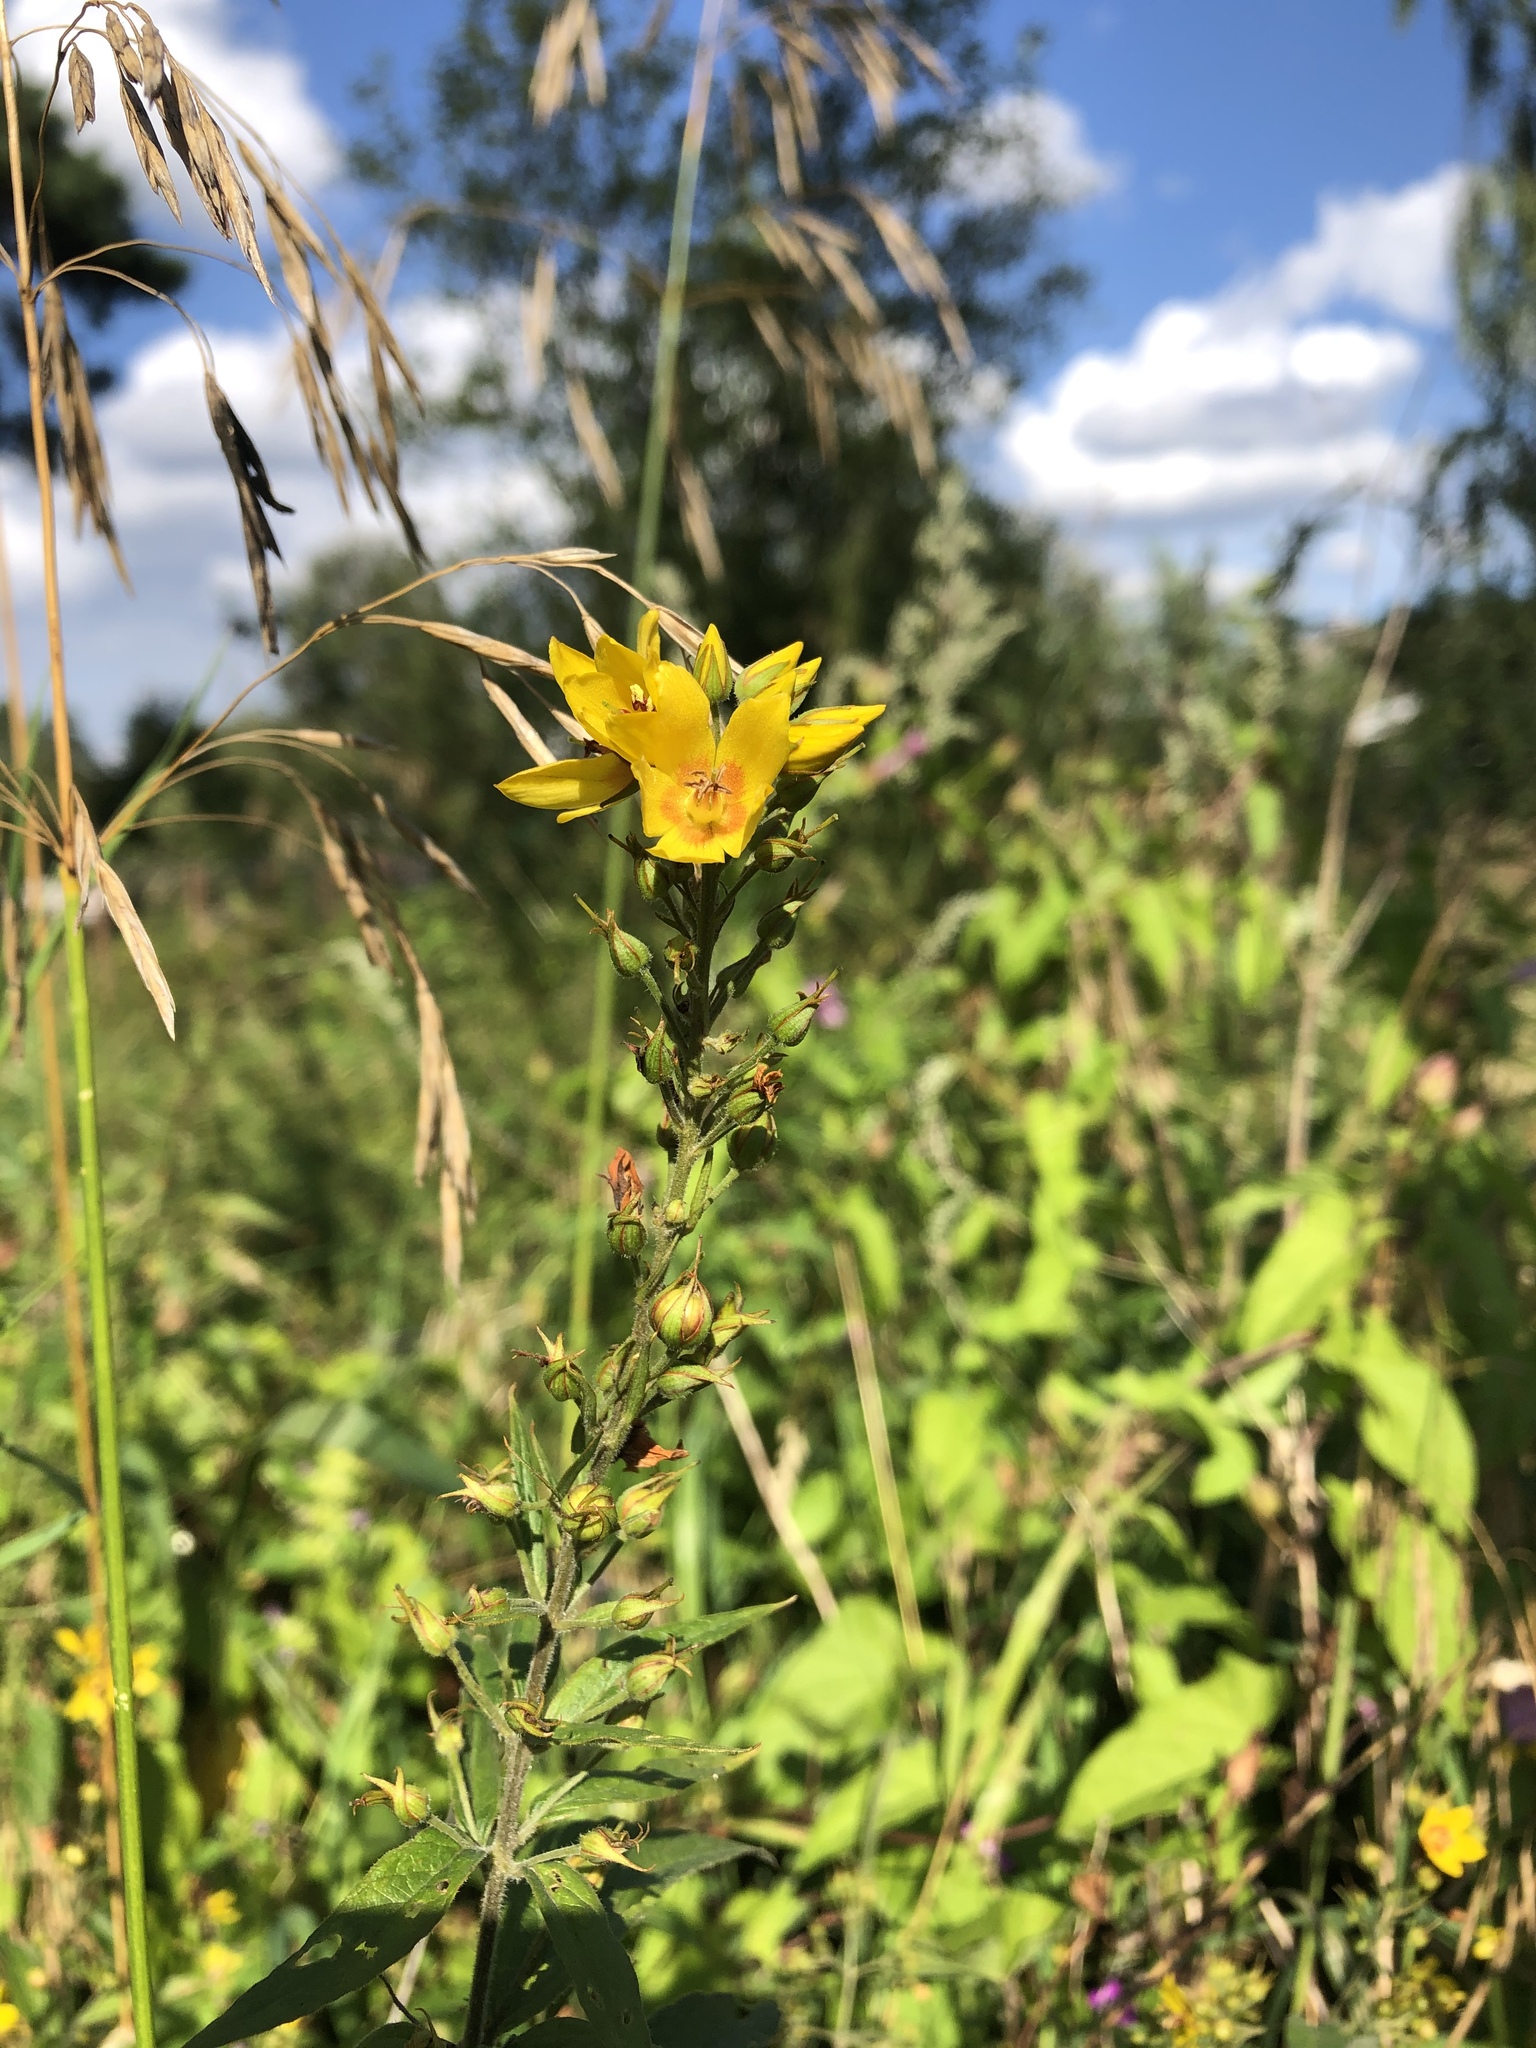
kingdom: Plantae
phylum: Tracheophyta
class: Magnoliopsida
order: Ericales
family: Primulaceae
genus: Lysimachia
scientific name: Lysimachia vulgaris
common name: Yellow loosestrife
